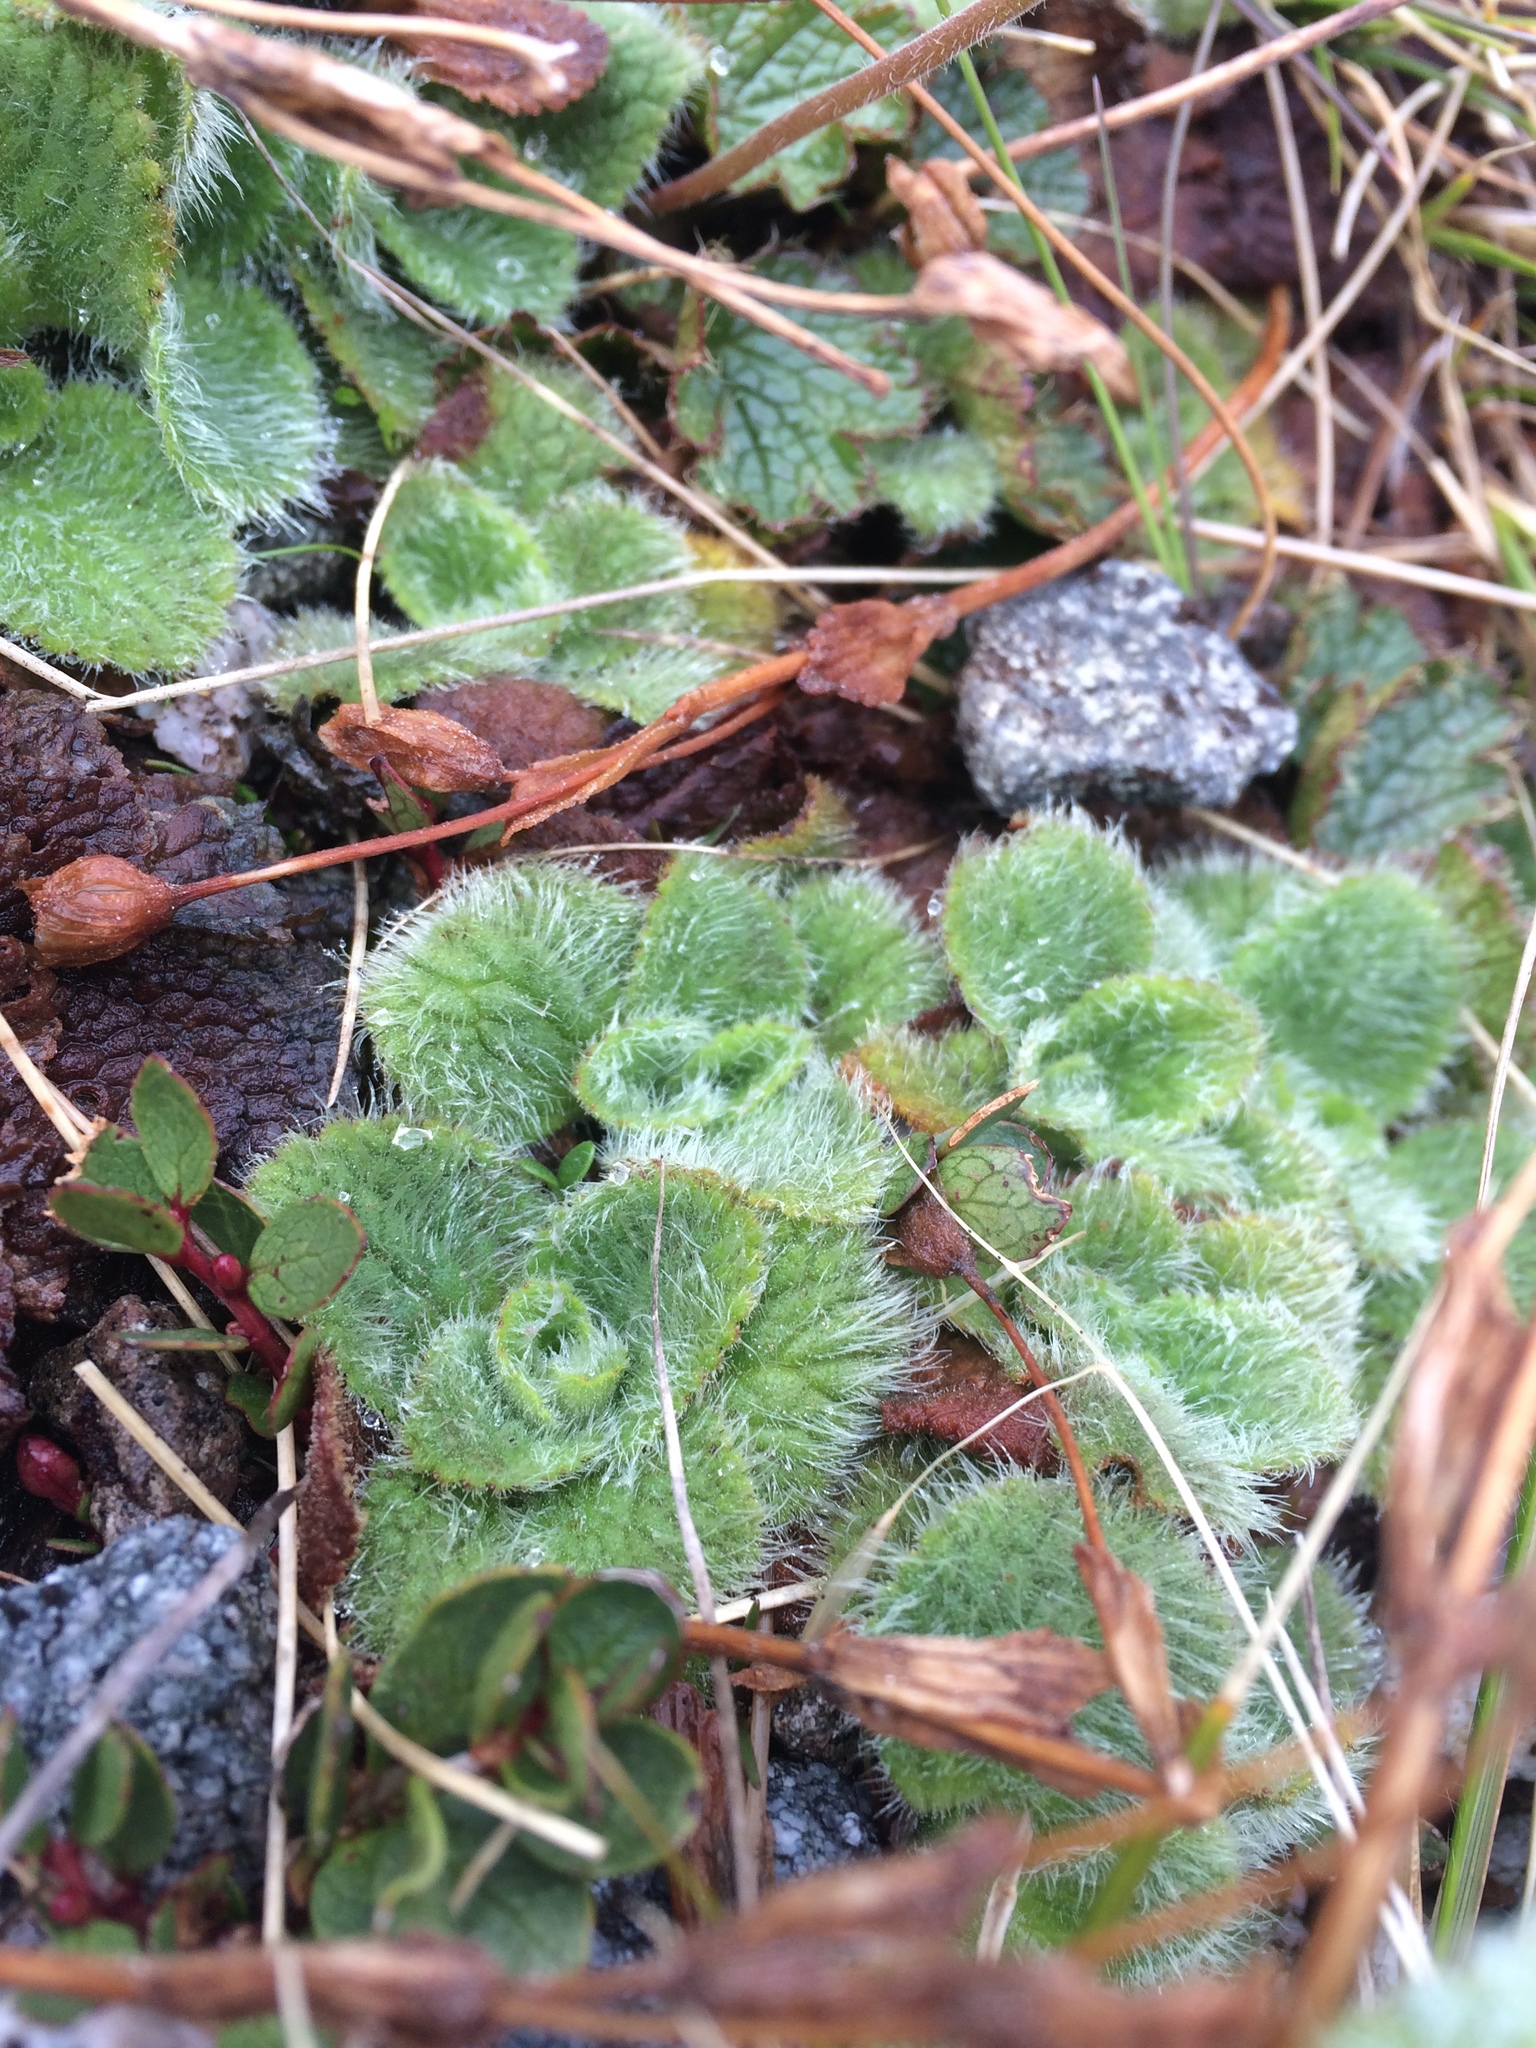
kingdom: Plantae
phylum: Tracheophyta
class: Magnoliopsida
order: Lamiales
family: Plantaginaceae
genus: Ourisia
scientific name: Ourisia sessilifolia
